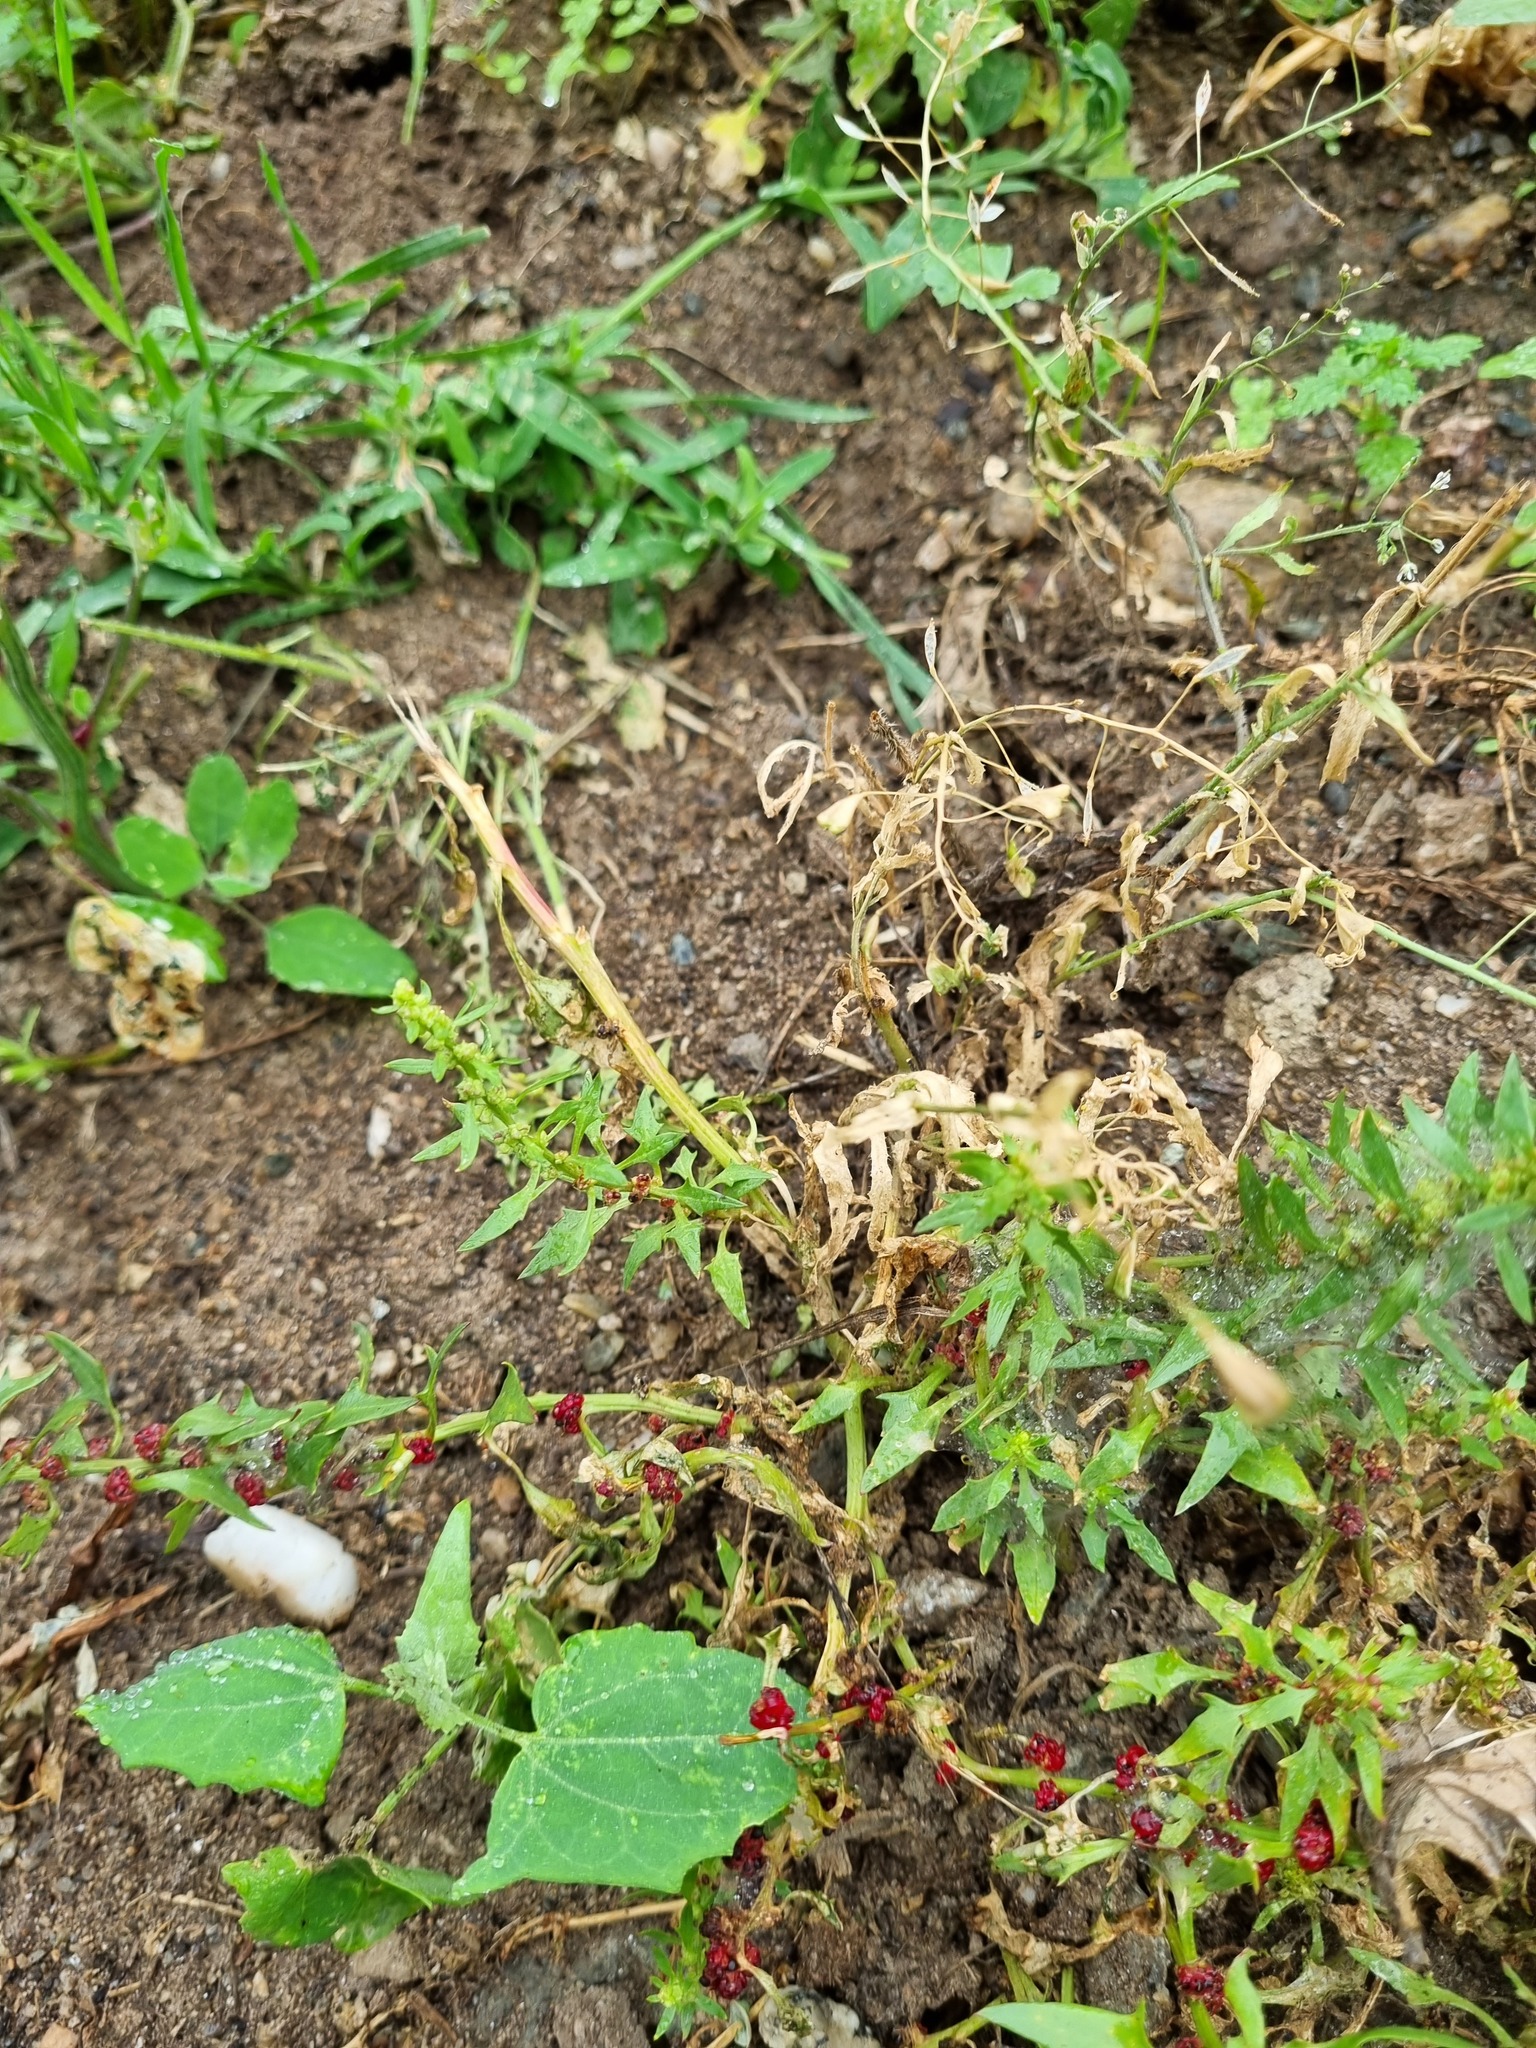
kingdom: Plantae
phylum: Tracheophyta
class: Magnoliopsida
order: Caryophyllales
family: Amaranthaceae
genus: Blitum
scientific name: Blitum virgatum
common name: Strawberry goosefoot
